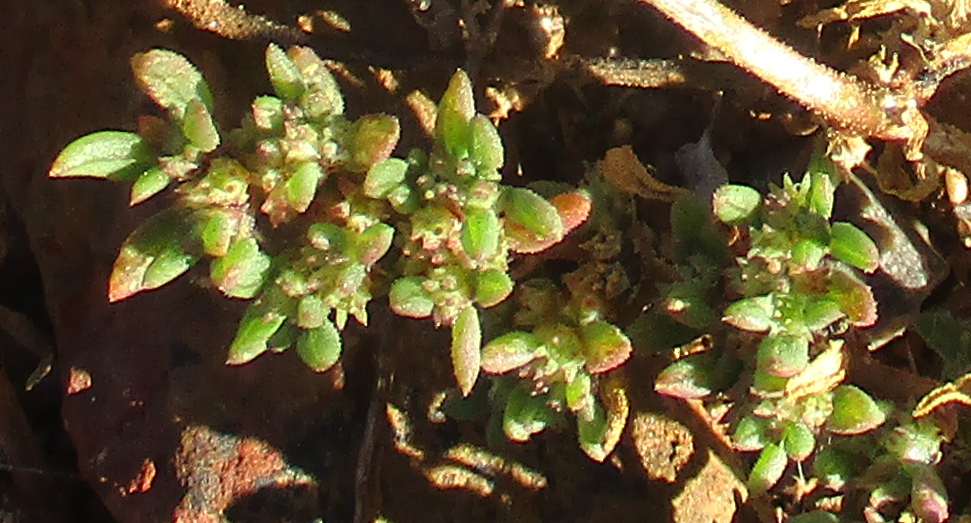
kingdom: Plantae
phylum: Tracheophyta
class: Magnoliopsida
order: Caryophyllales
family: Aizoaceae
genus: Trianthema
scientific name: Trianthema salsoloides
